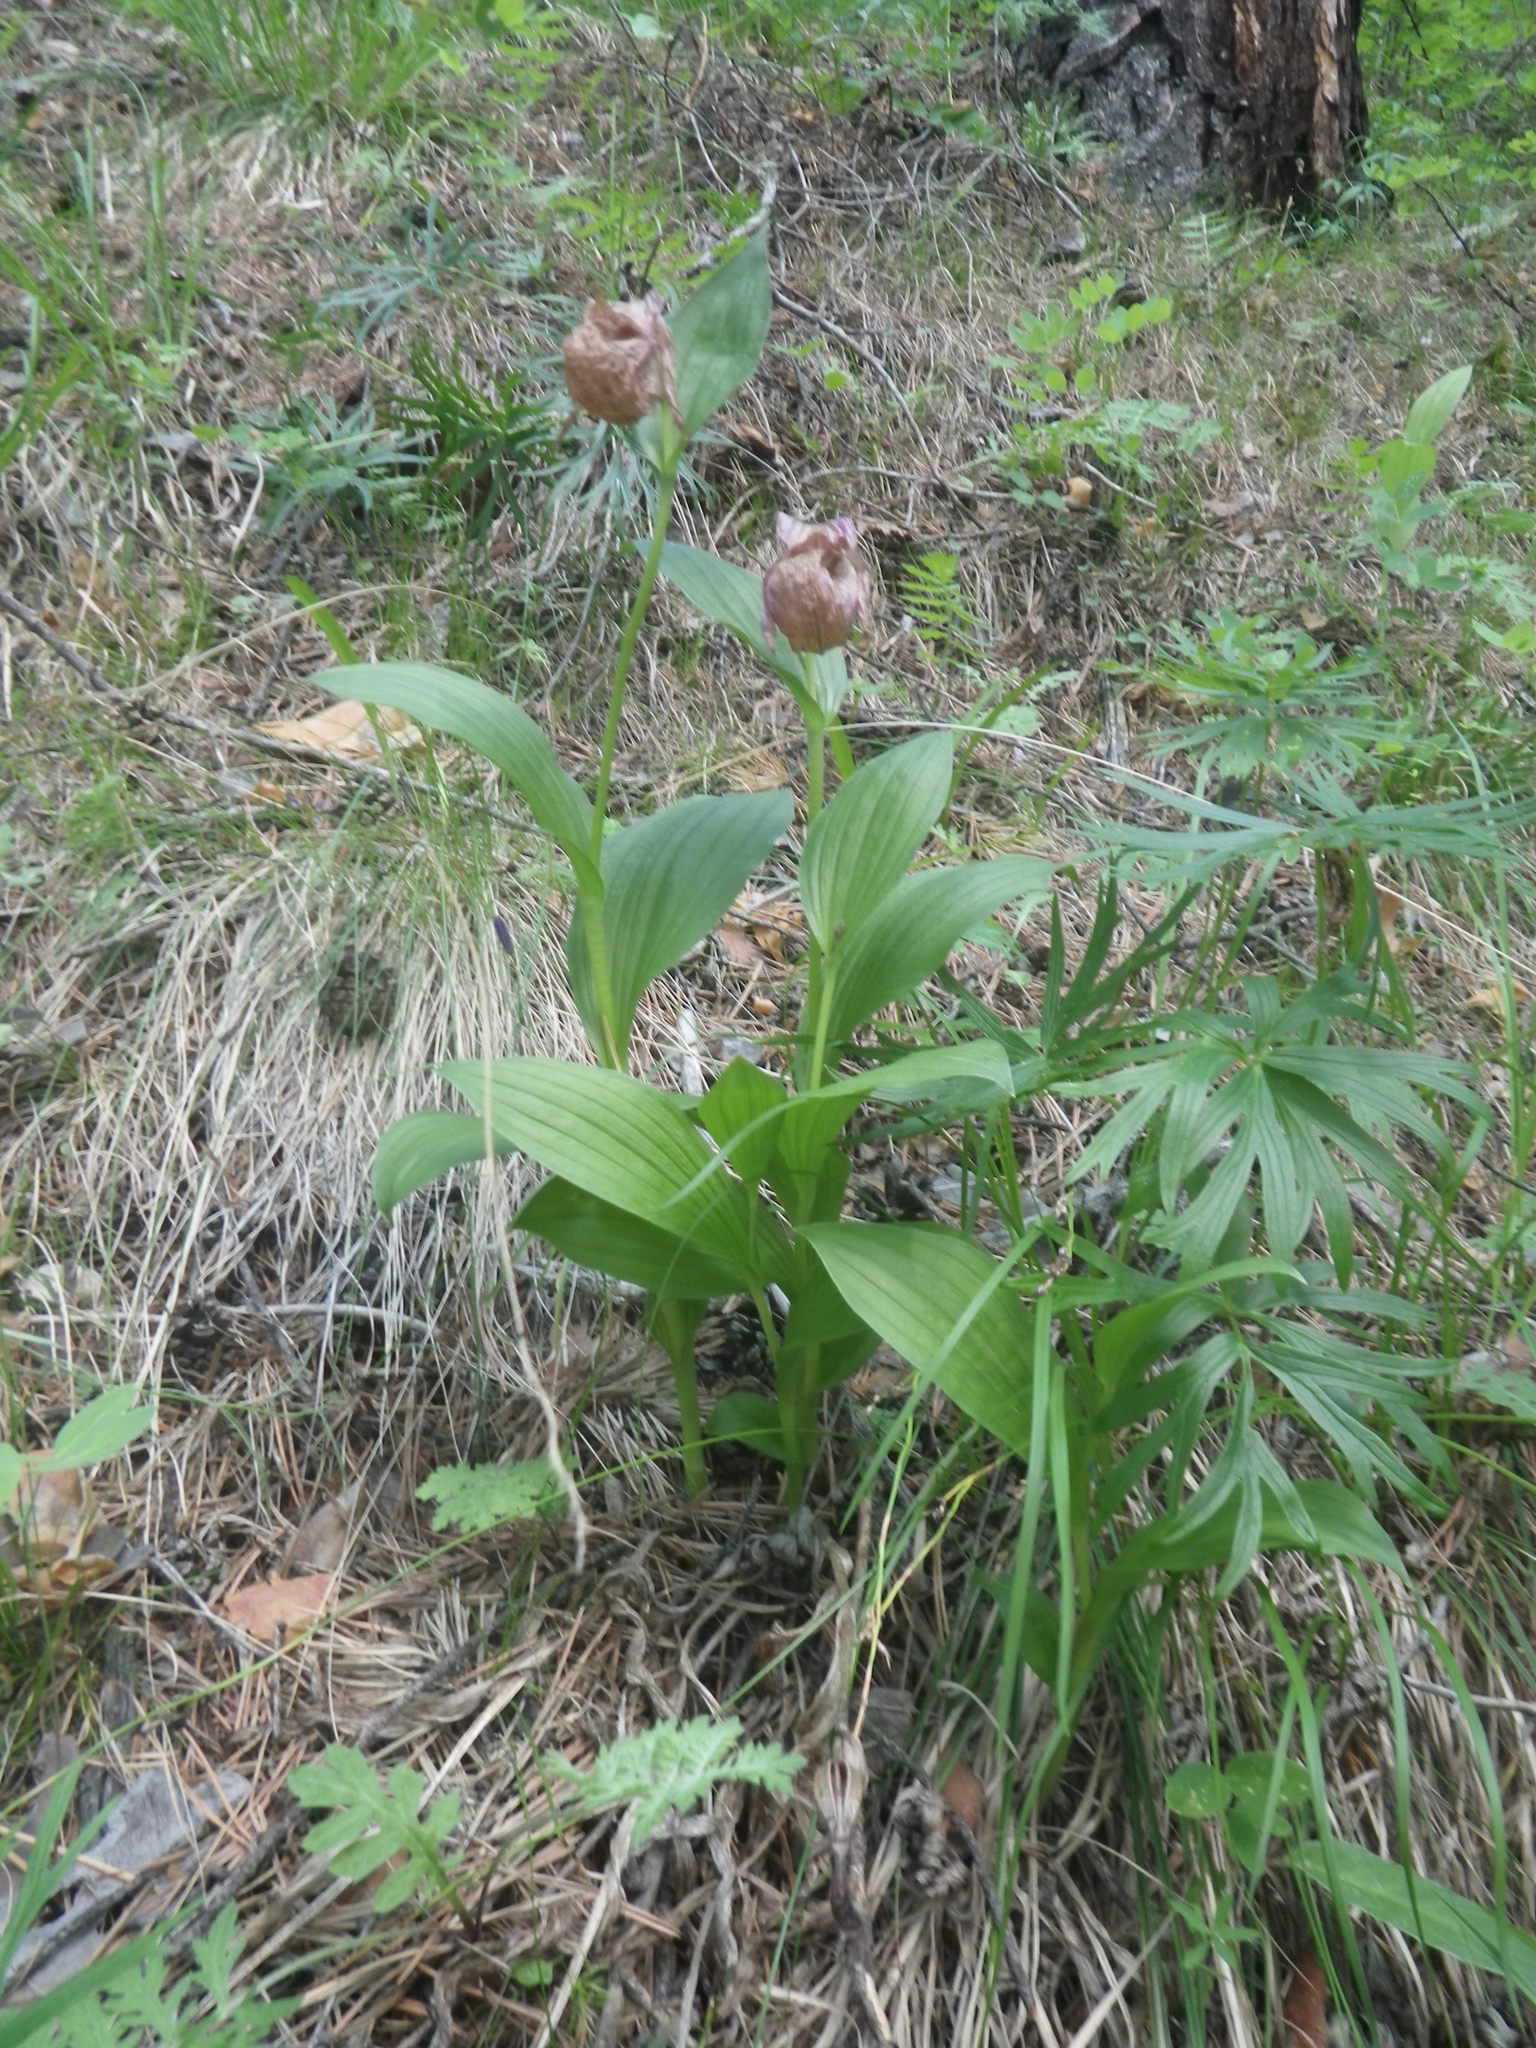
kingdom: Plantae
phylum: Tracheophyta
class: Liliopsida
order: Asparagales
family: Orchidaceae
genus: Cypripedium
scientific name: Cypripedium macranthos
